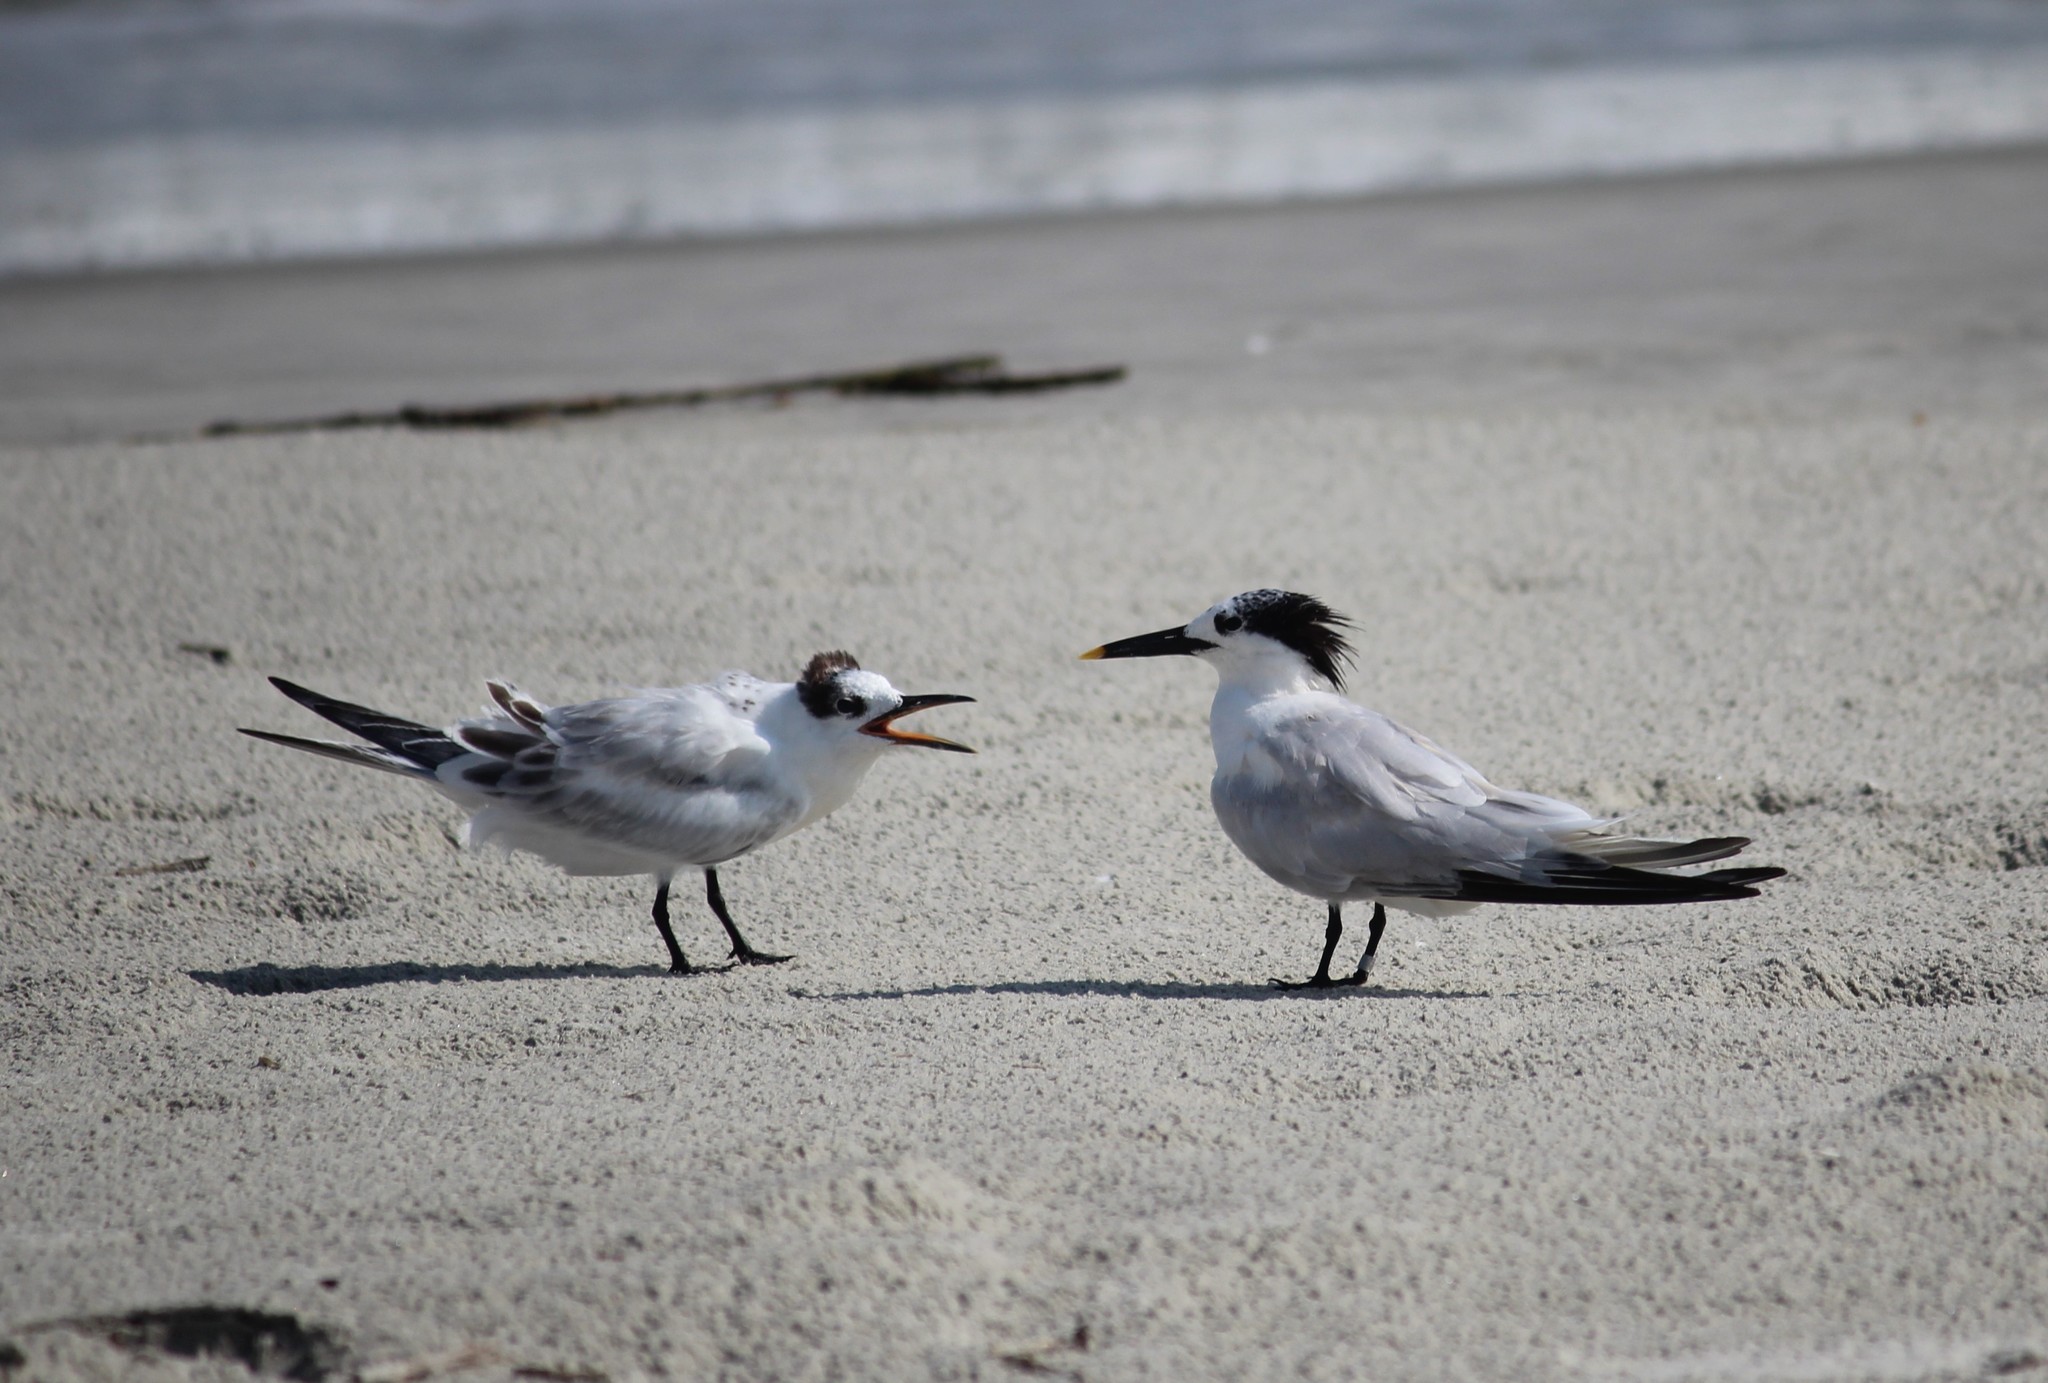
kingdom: Animalia
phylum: Chordata
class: Aves
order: Charadriiformes
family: Laridae
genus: Thalasseus
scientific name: Thalasseus sandvicensis
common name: Sandwich tern
